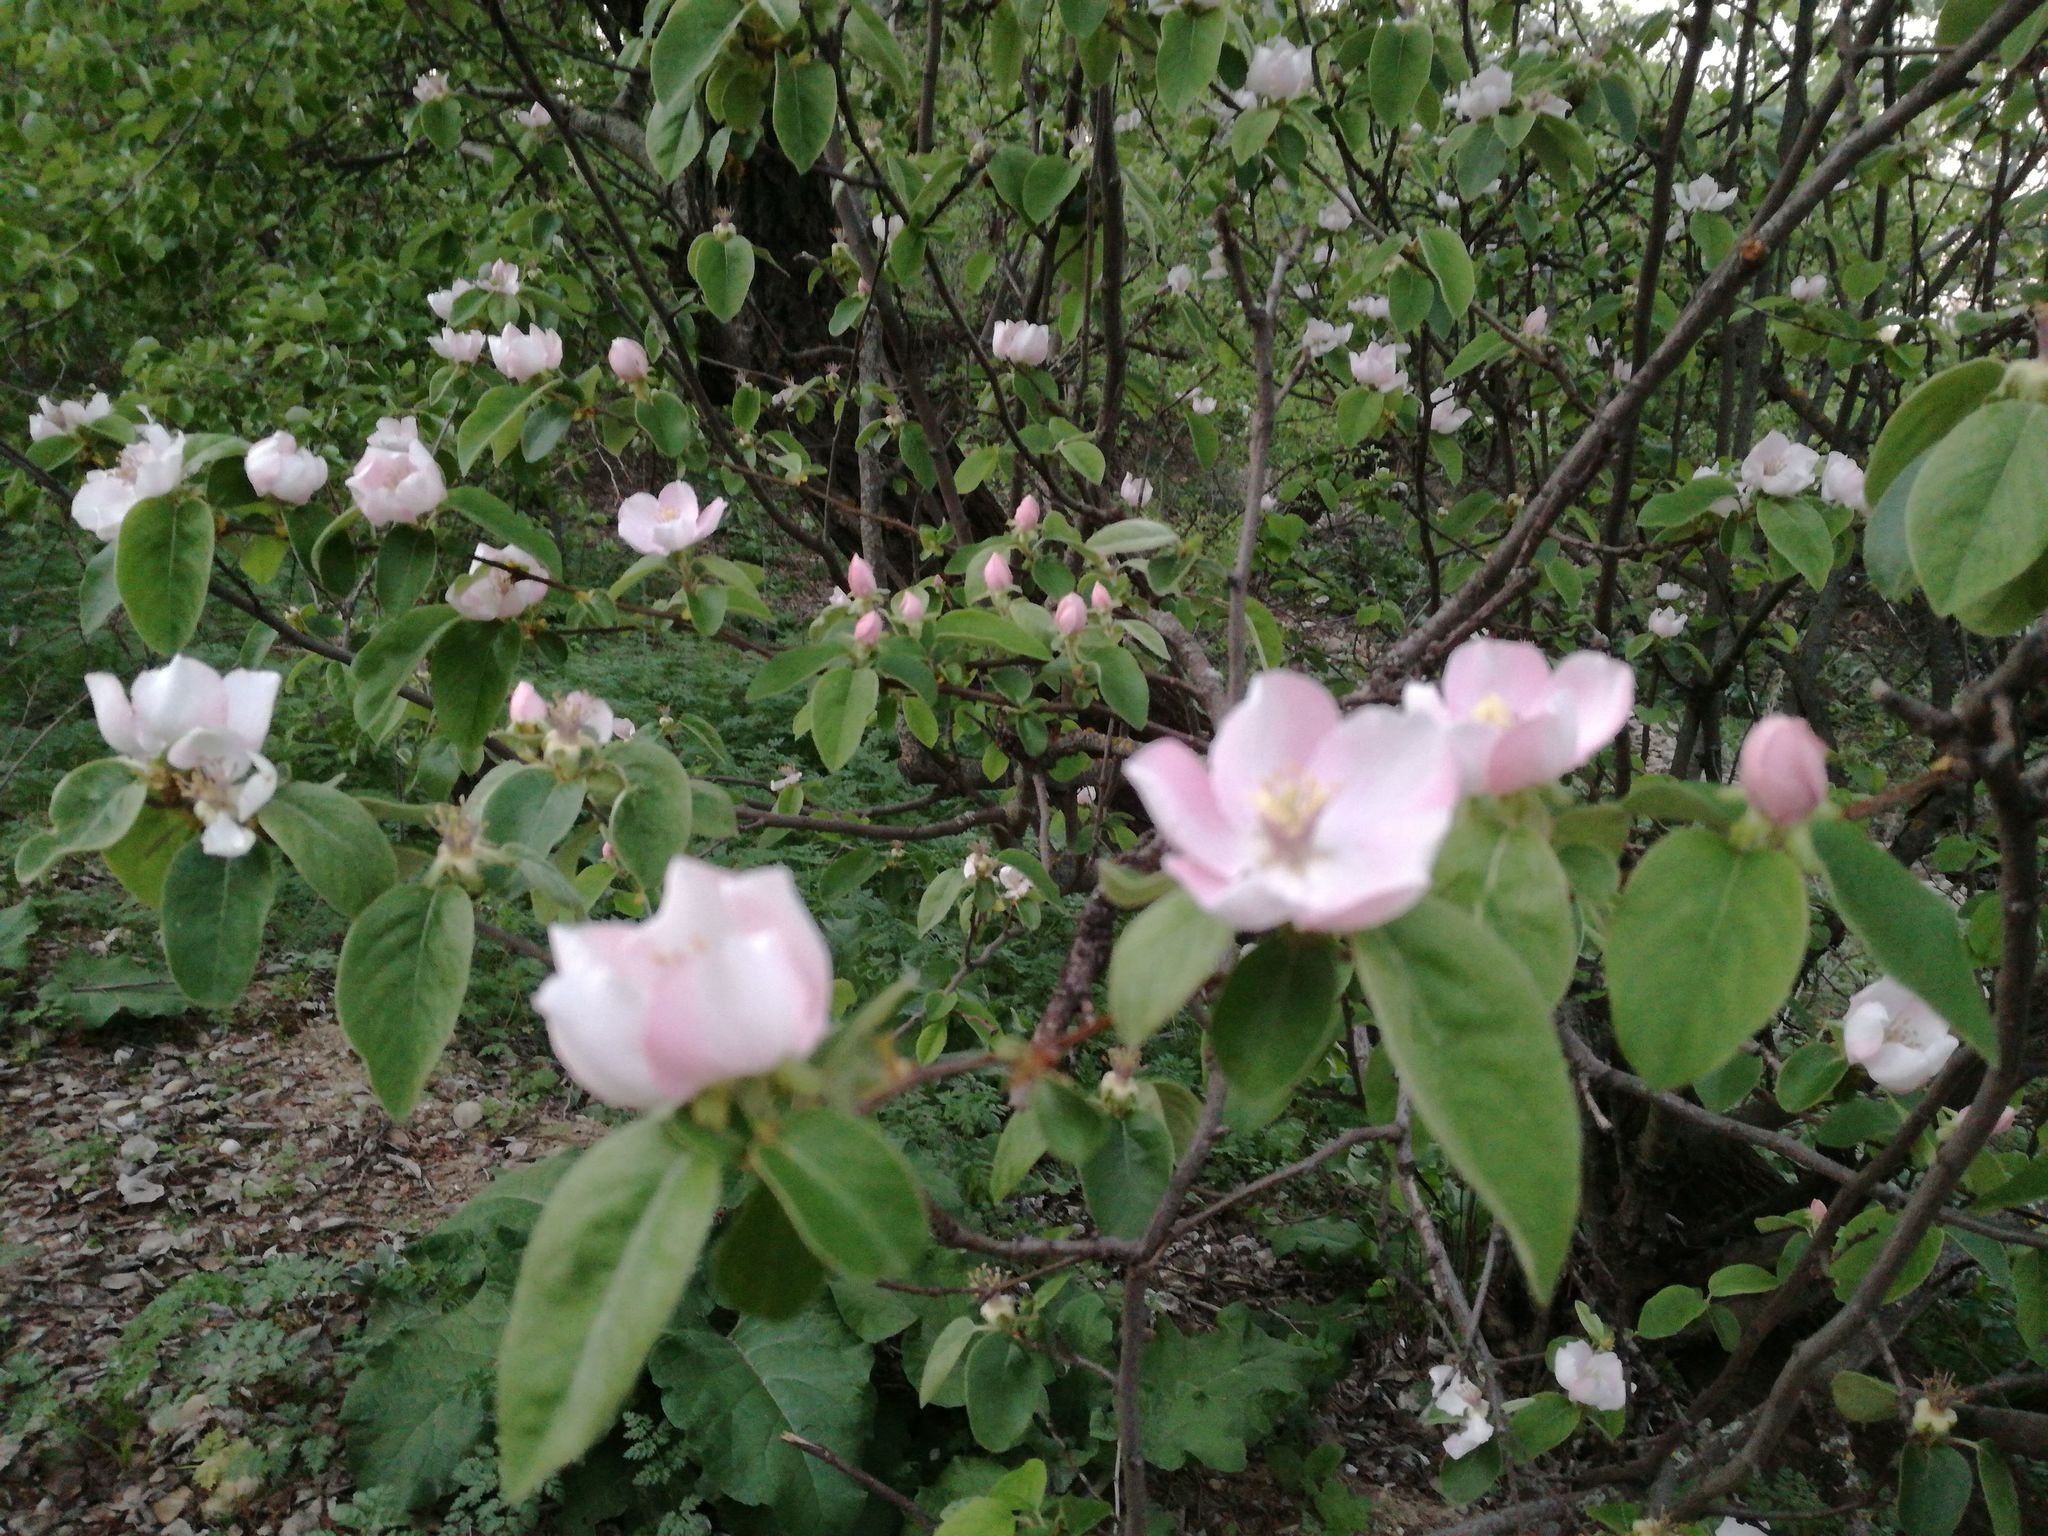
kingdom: Plantae
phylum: Tracheophyta
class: Magnoliopsida
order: Rosales
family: Rosaceae
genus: Cydonia
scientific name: Cydonia oblonga
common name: Quince
